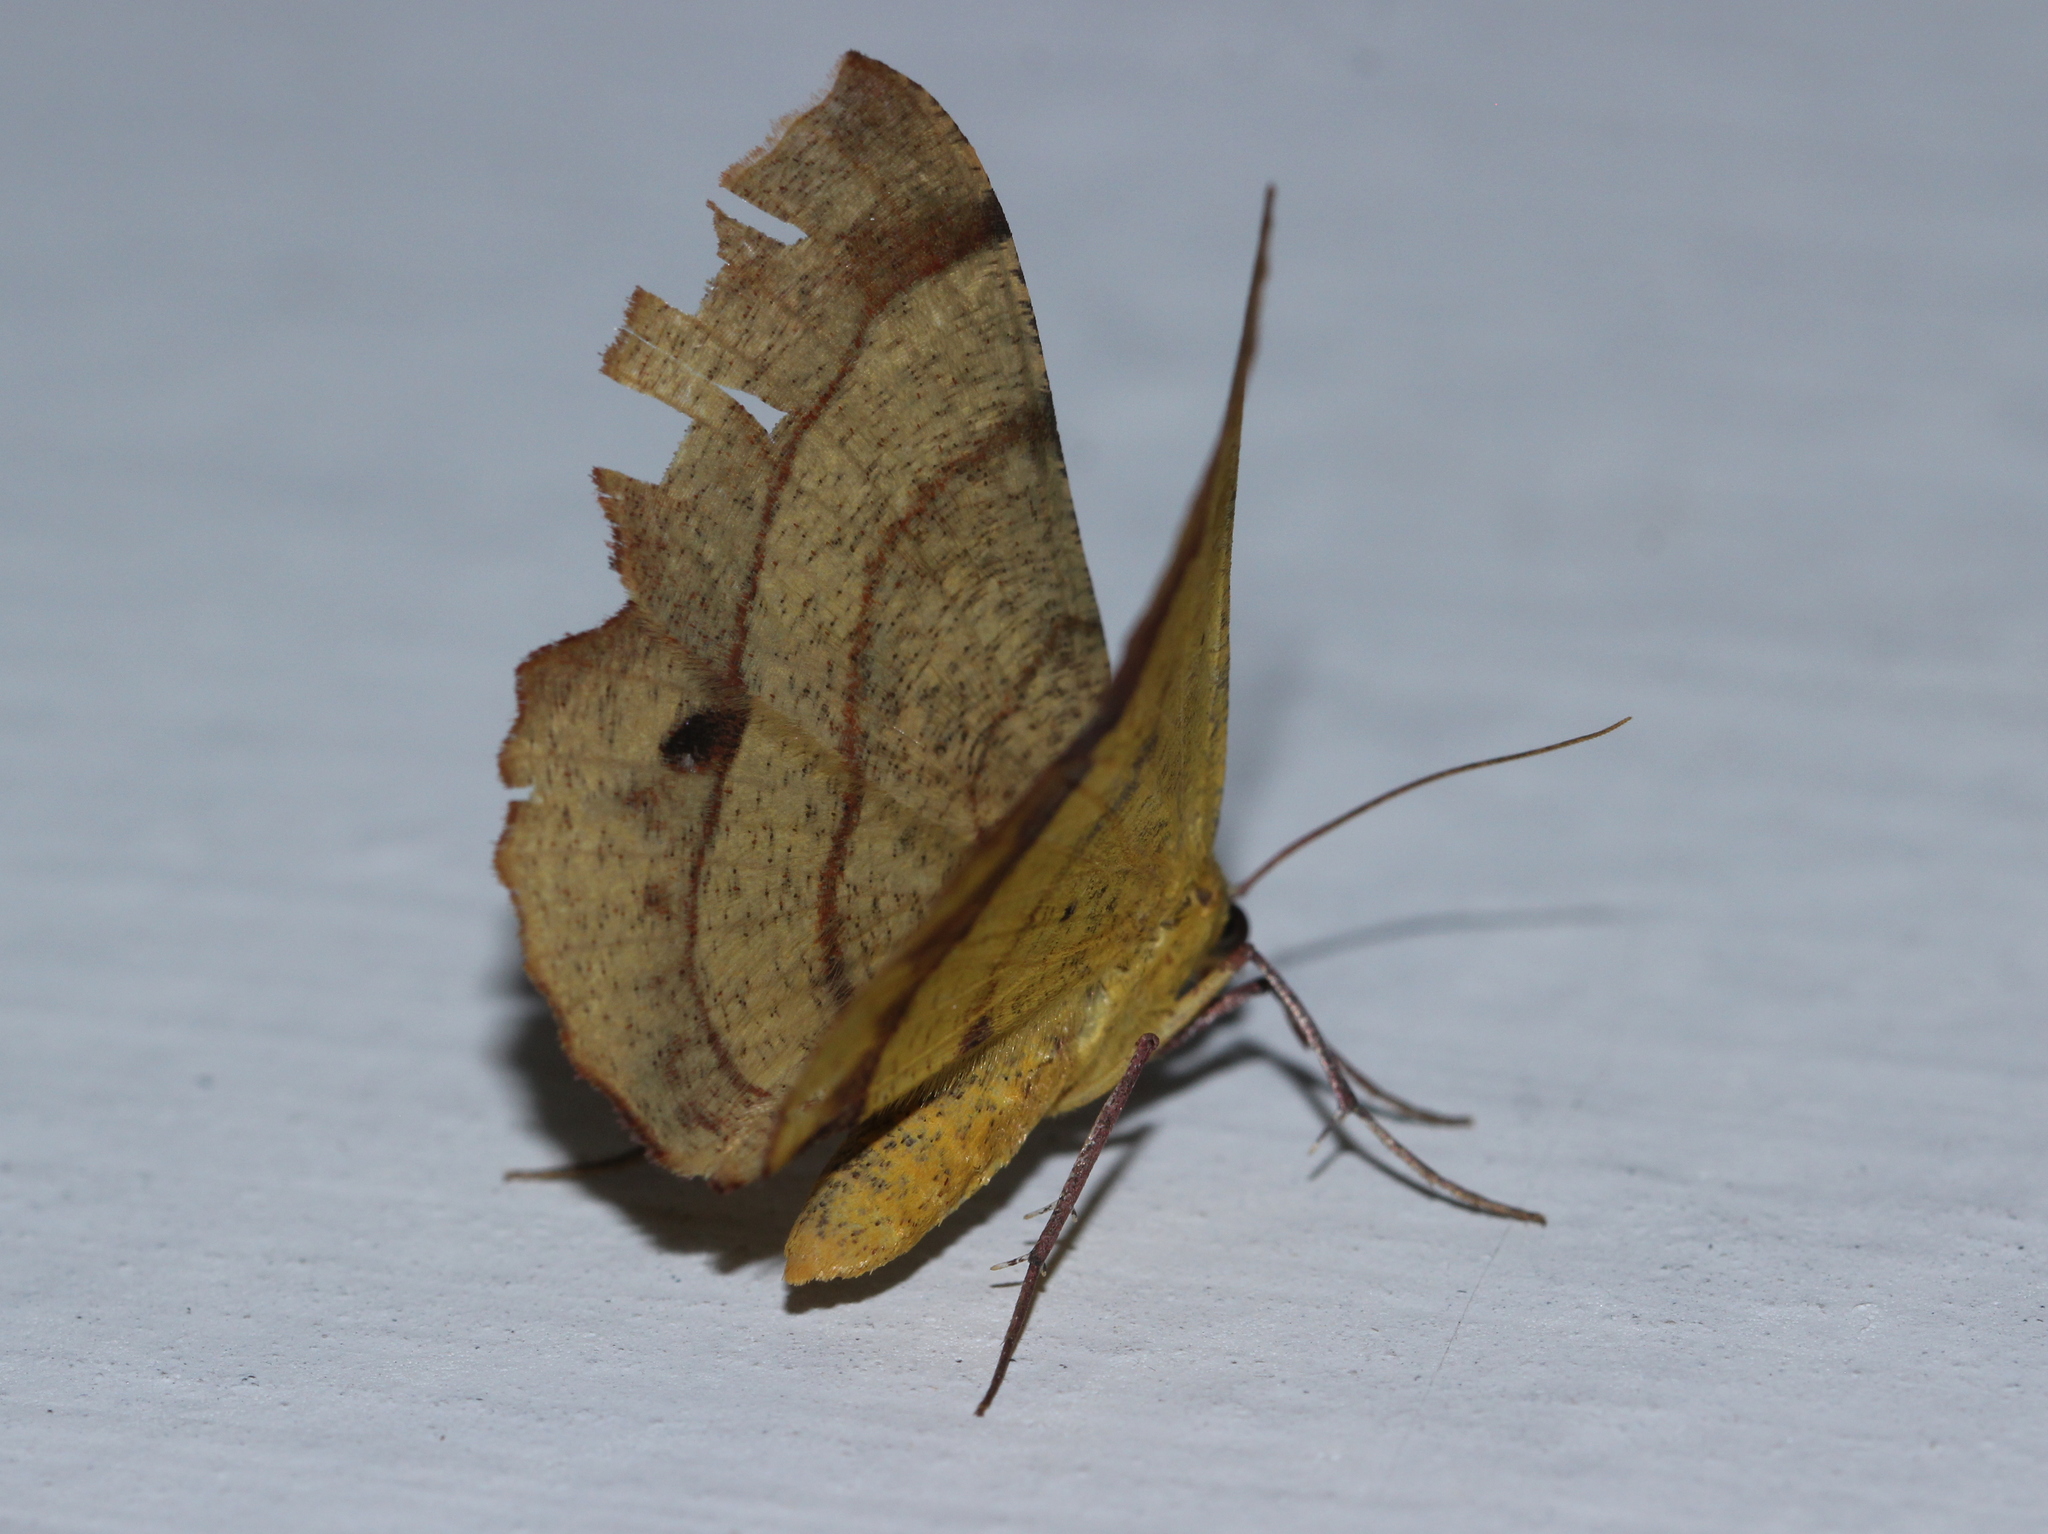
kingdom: Animalia
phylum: Arthropoda
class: Insecta
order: Lepidoptera
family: Geometridae
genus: Hyperythra
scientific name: Hyperythra lutea
